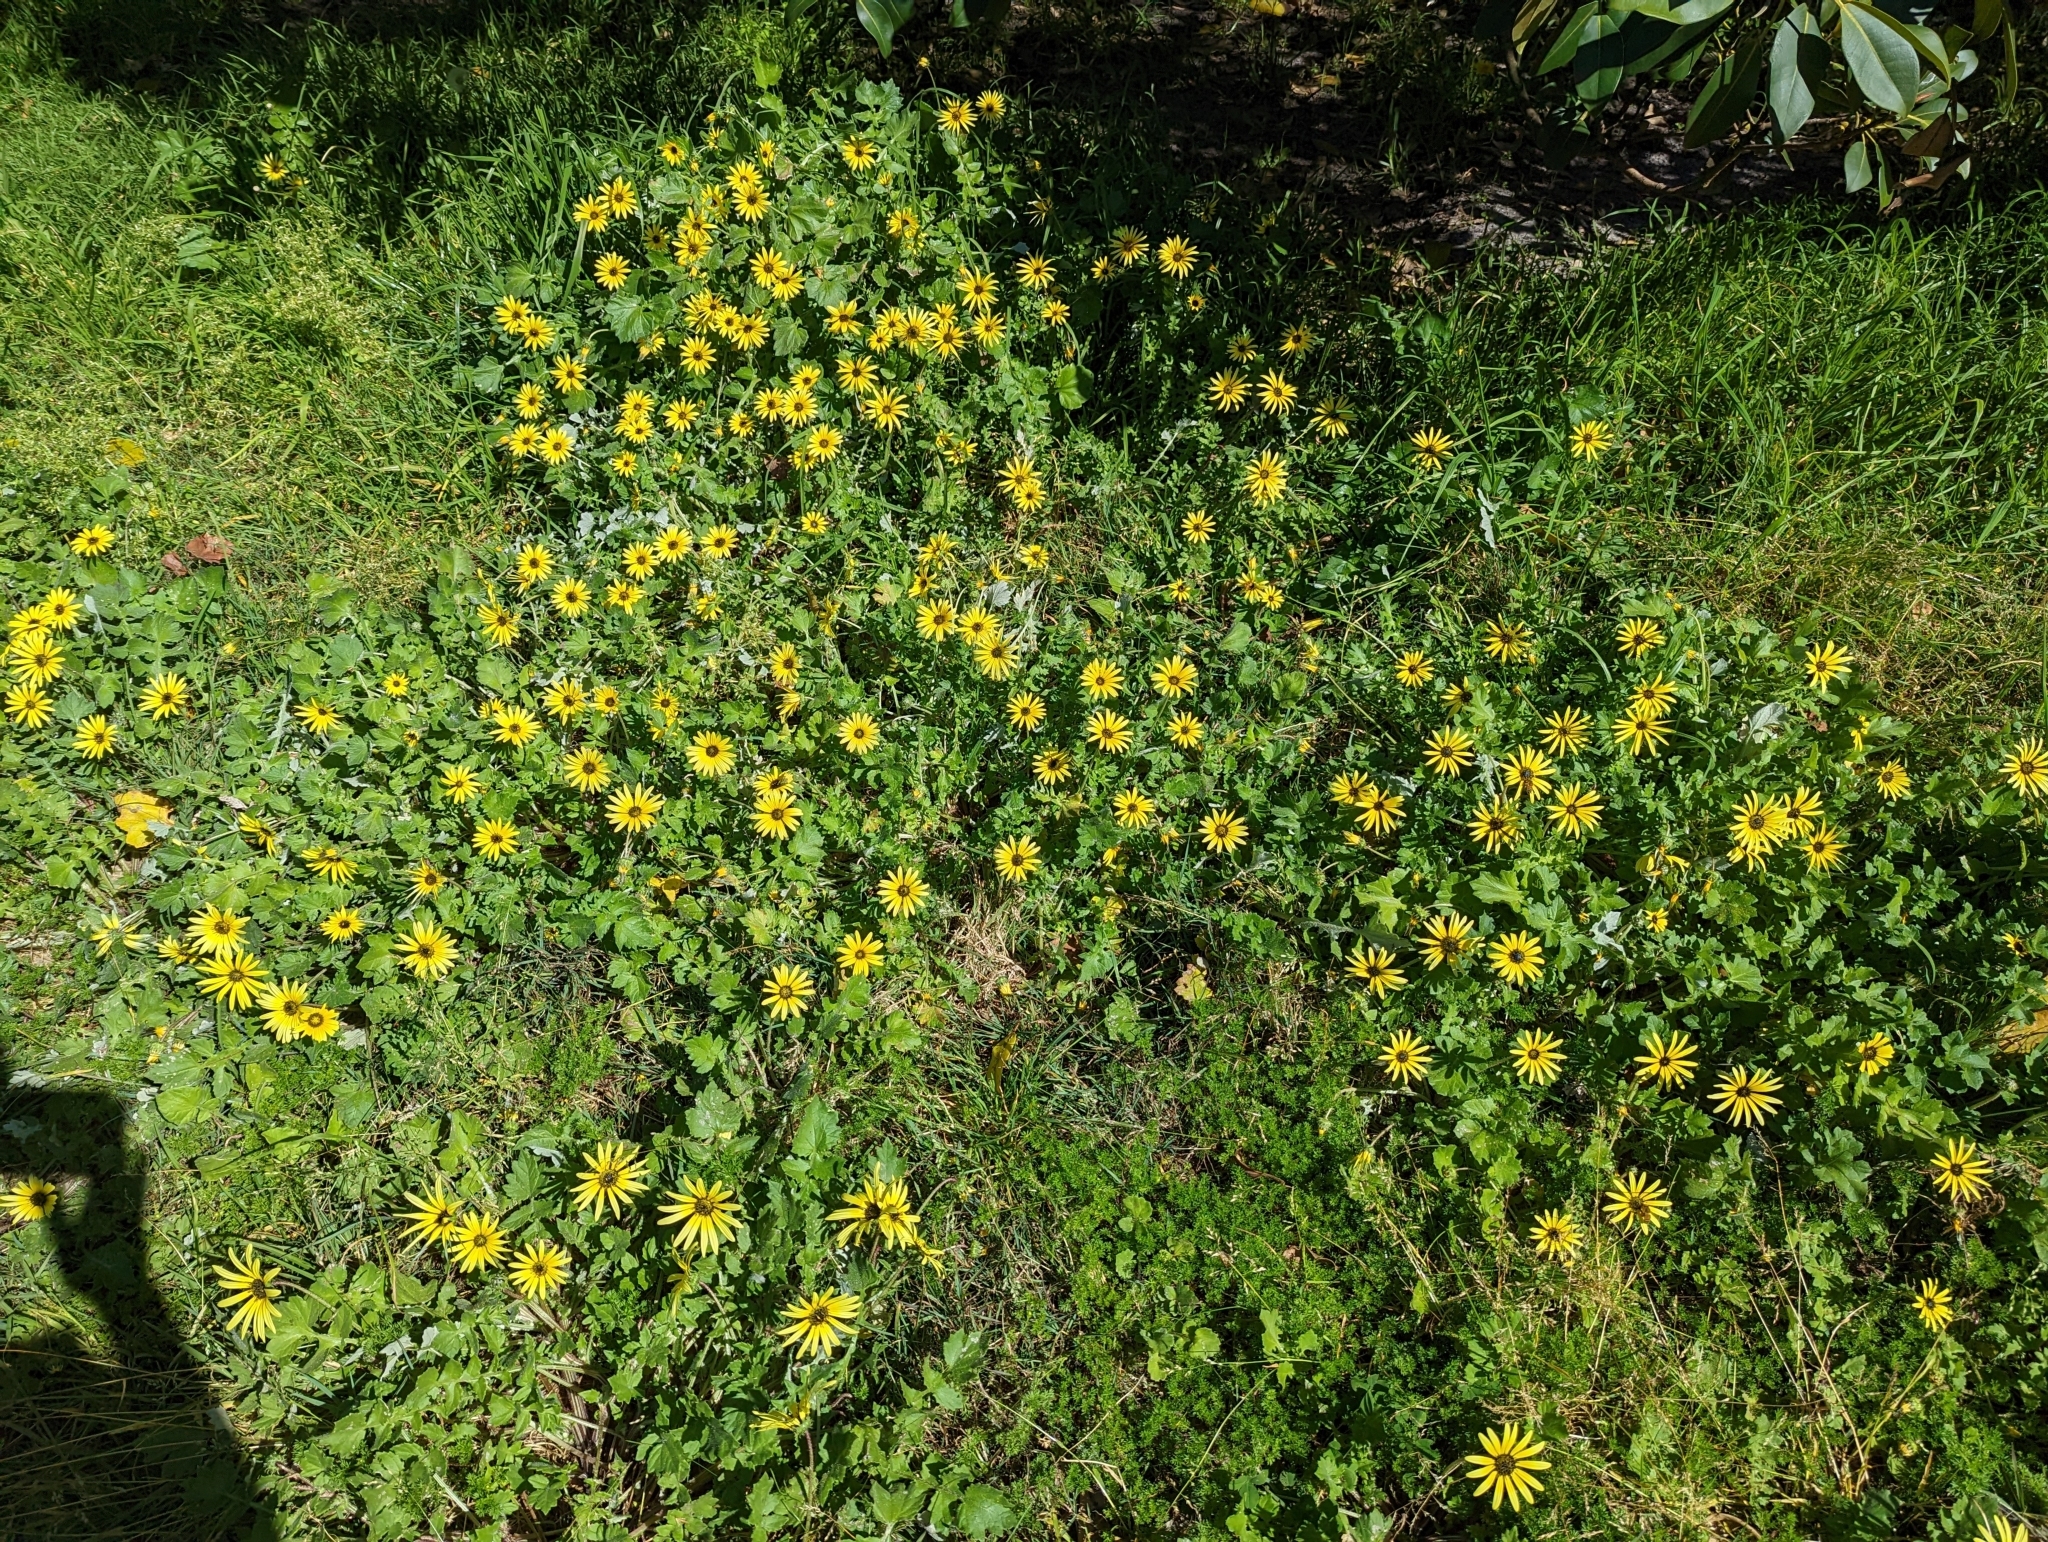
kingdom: Plantae
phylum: Tracheophyta
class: Magnoliopsida
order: Asterales
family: Asteraceae
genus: Arctotheca
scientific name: Arctotheca calendula
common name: Capeweed
